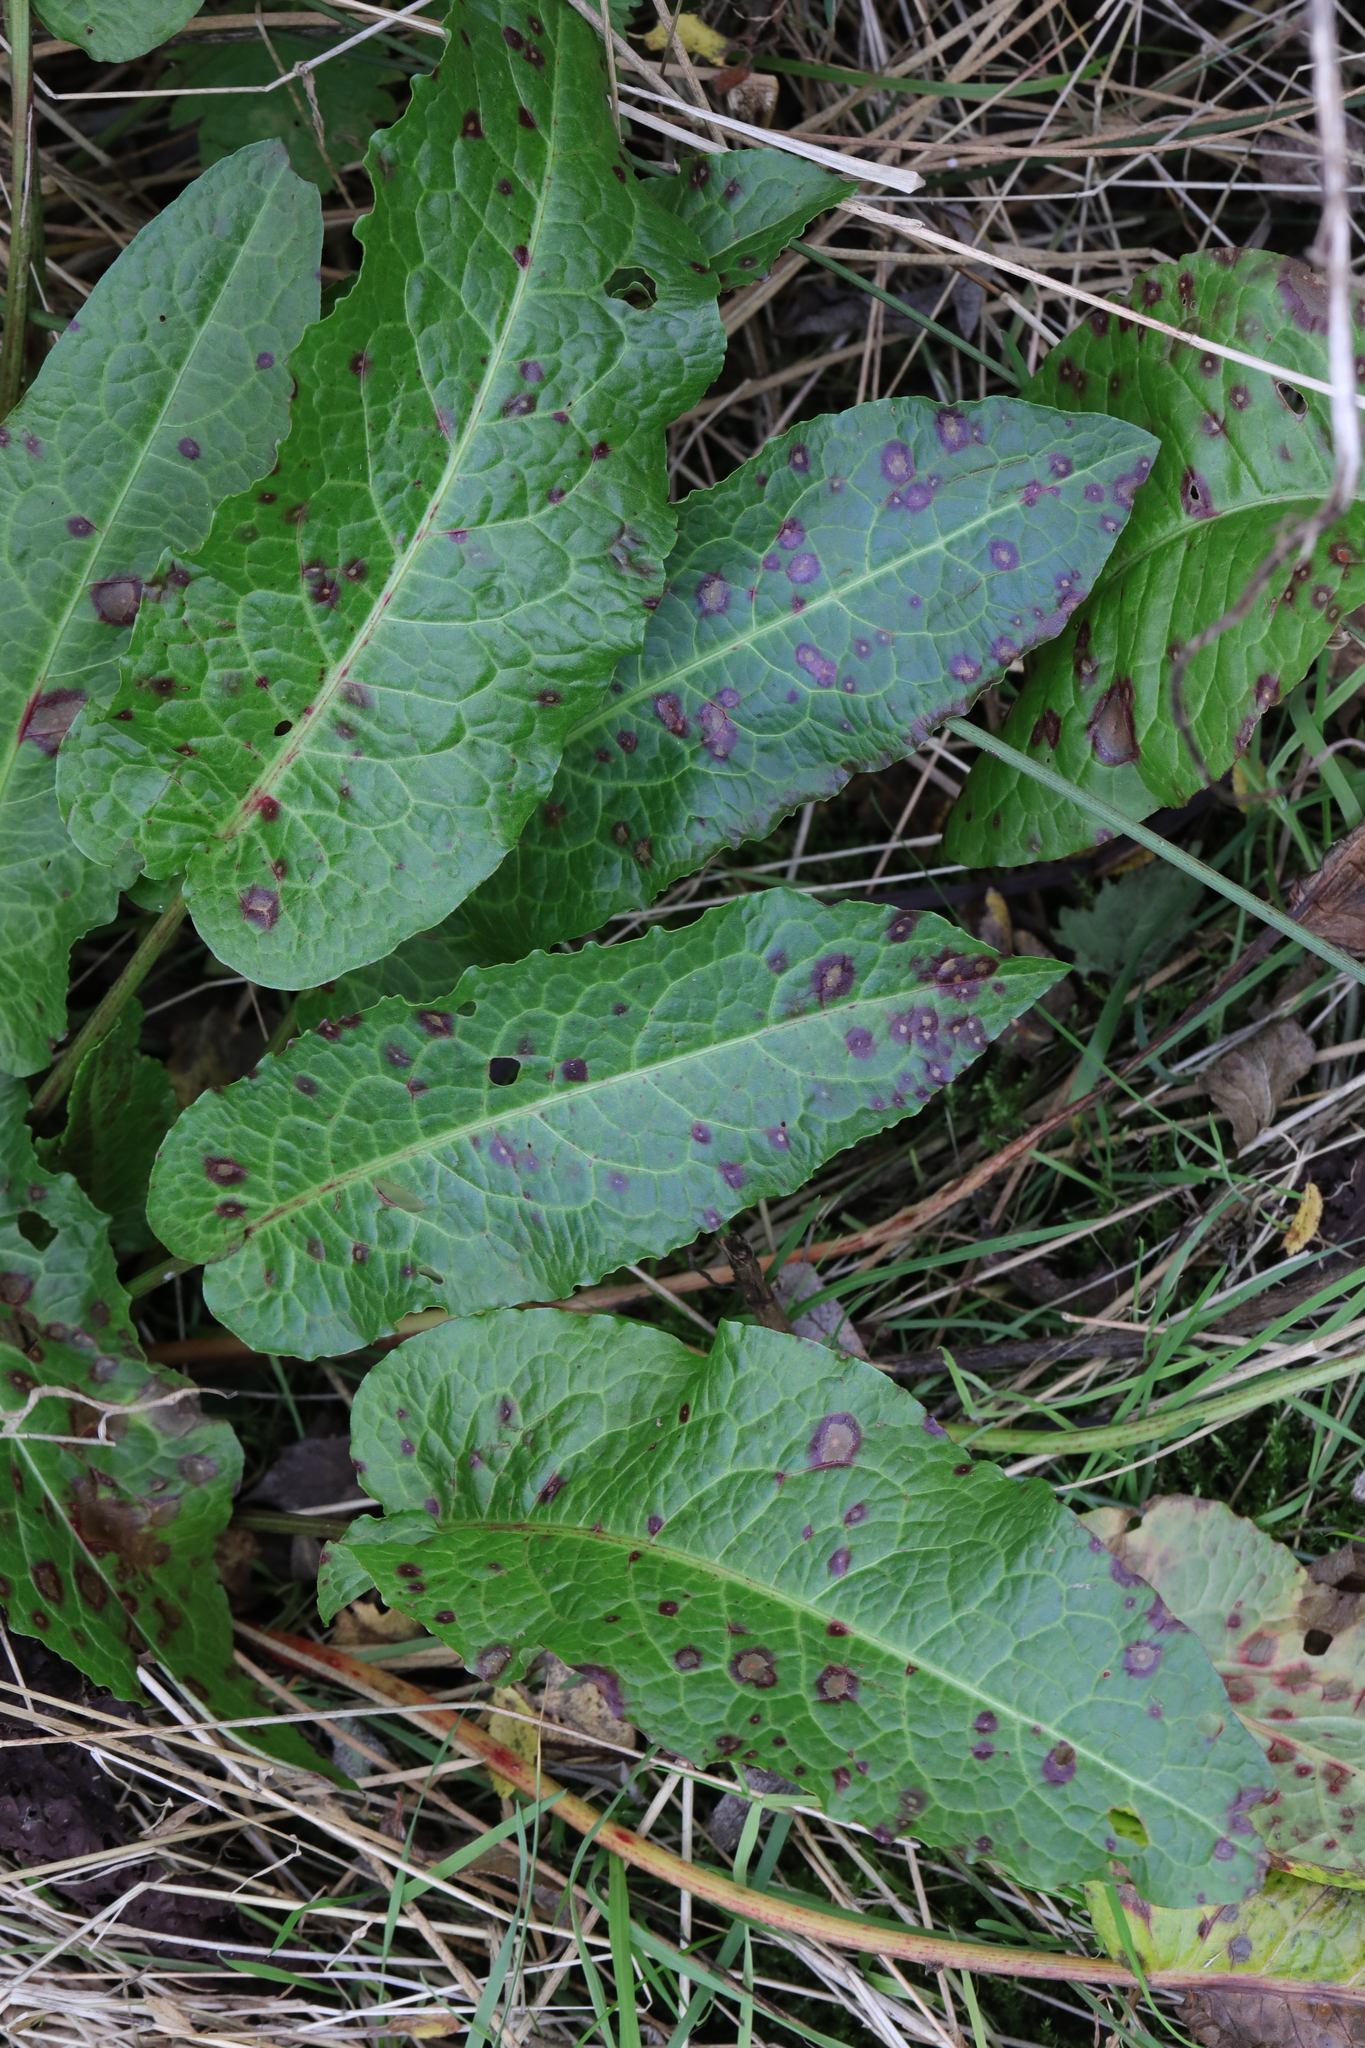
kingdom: Plantae
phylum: Tracheophyta
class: Magnoliopsida
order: Caryophyllales
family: Polygonaceae
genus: Rumex
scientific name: Rumex obtusifolius
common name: Bitter dock
